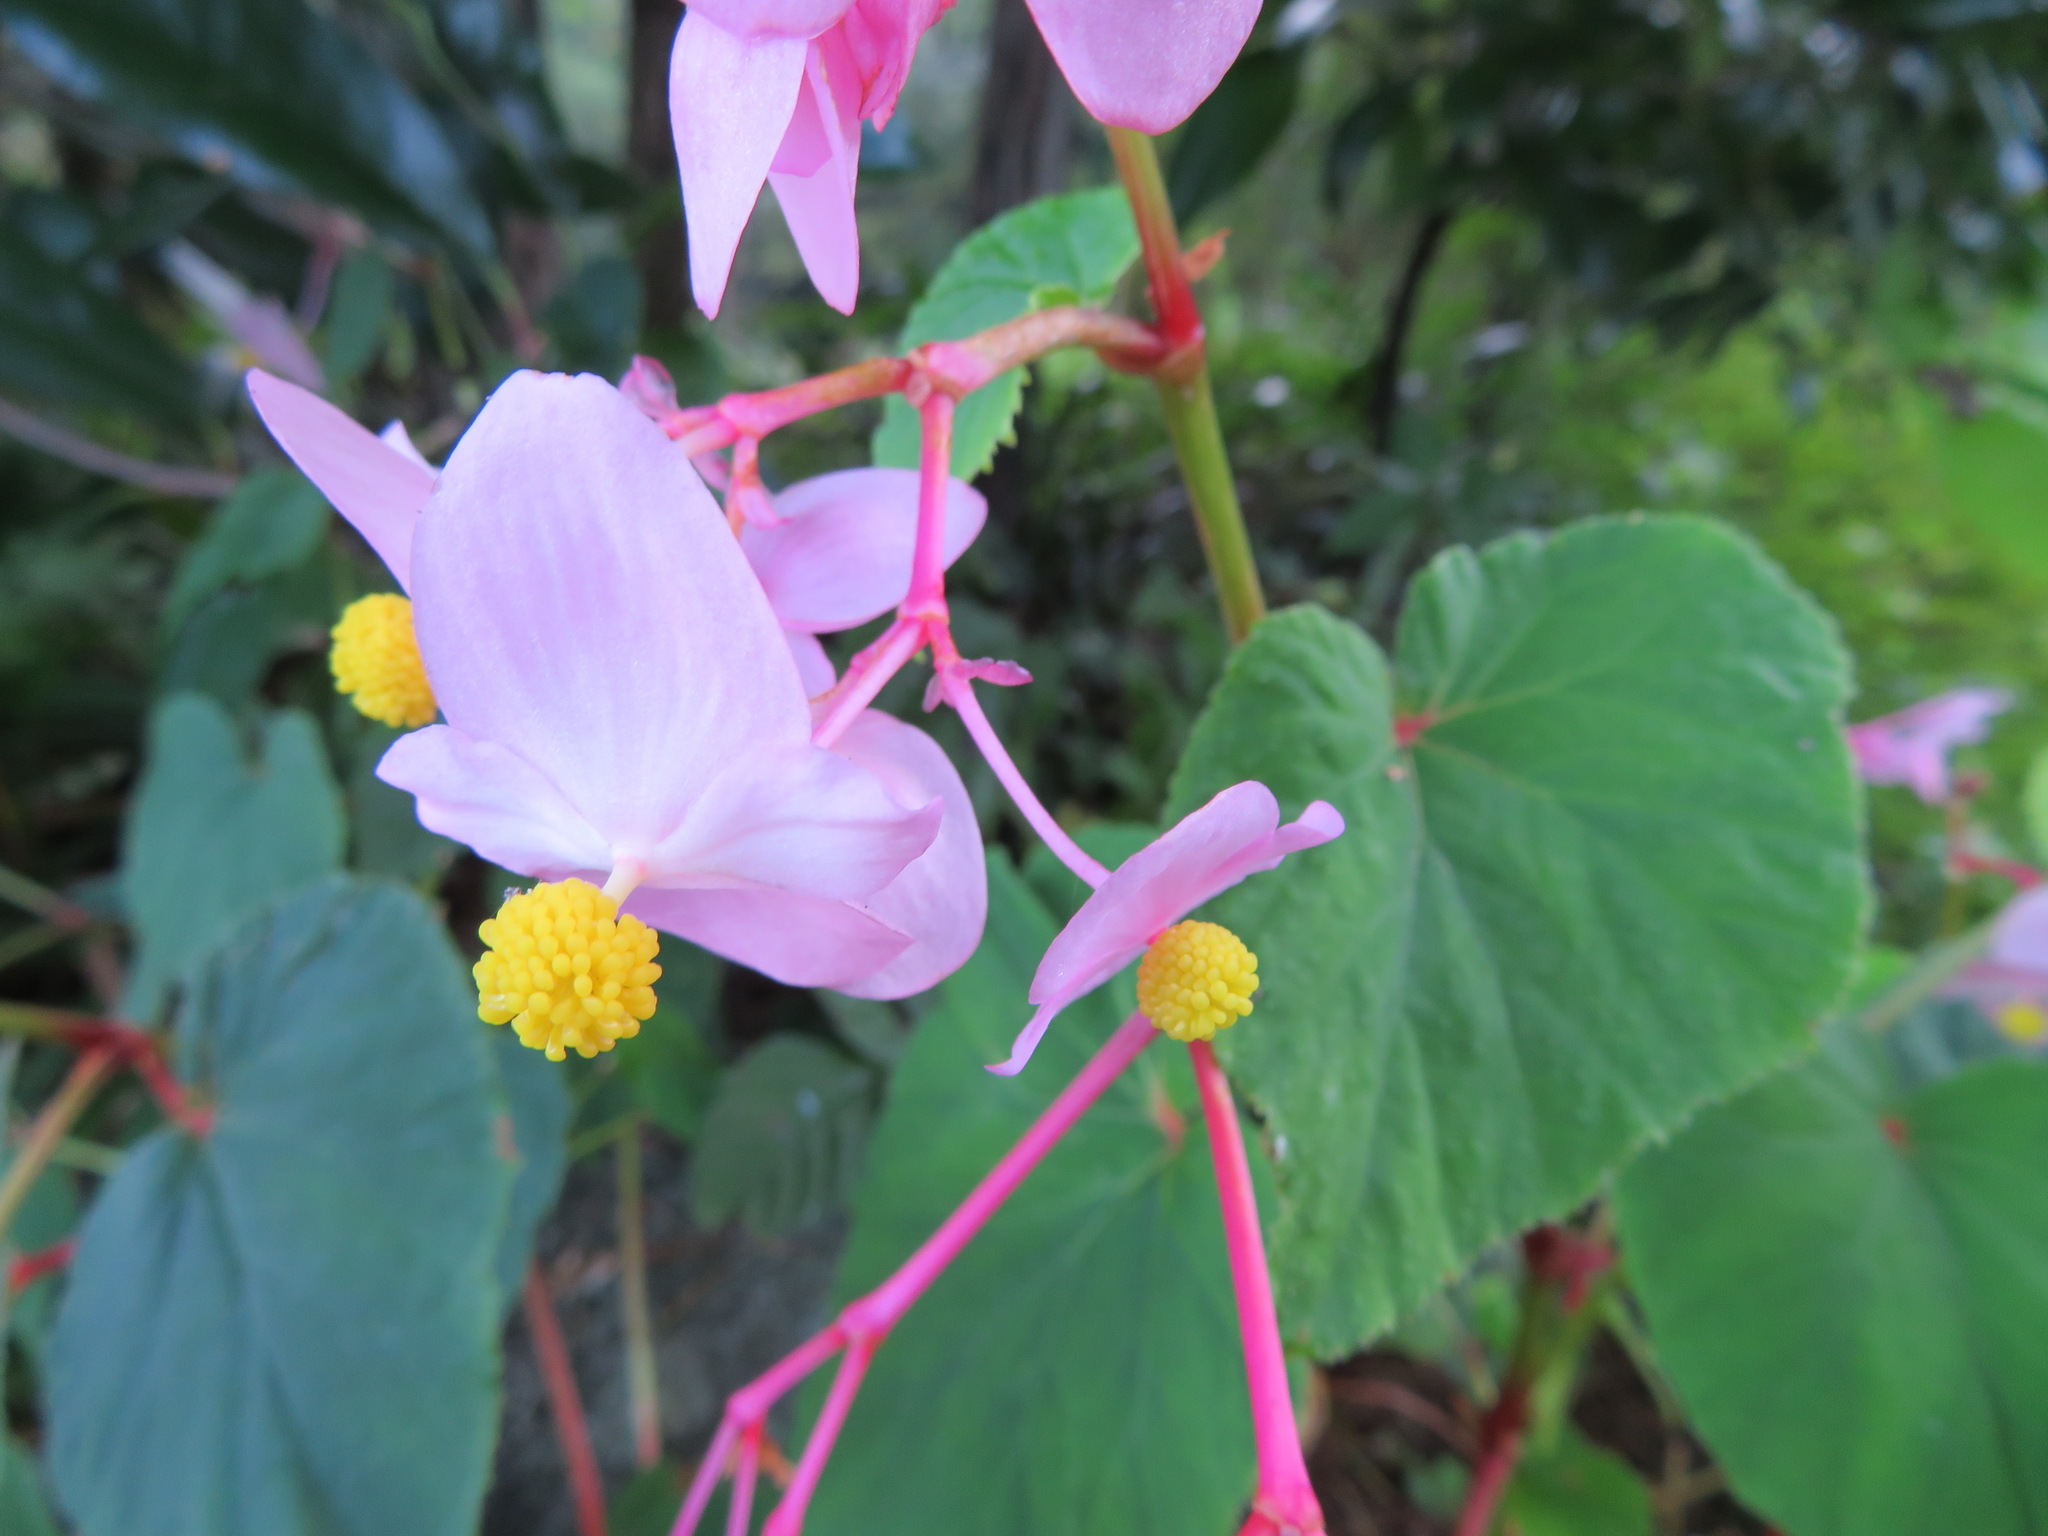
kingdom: Plantae
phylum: Tracheophyta
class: Magnoliopsida
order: Cucurbitales
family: Begoniaceae
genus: Begonia
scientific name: Begonia grandis
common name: Hardy begonia
